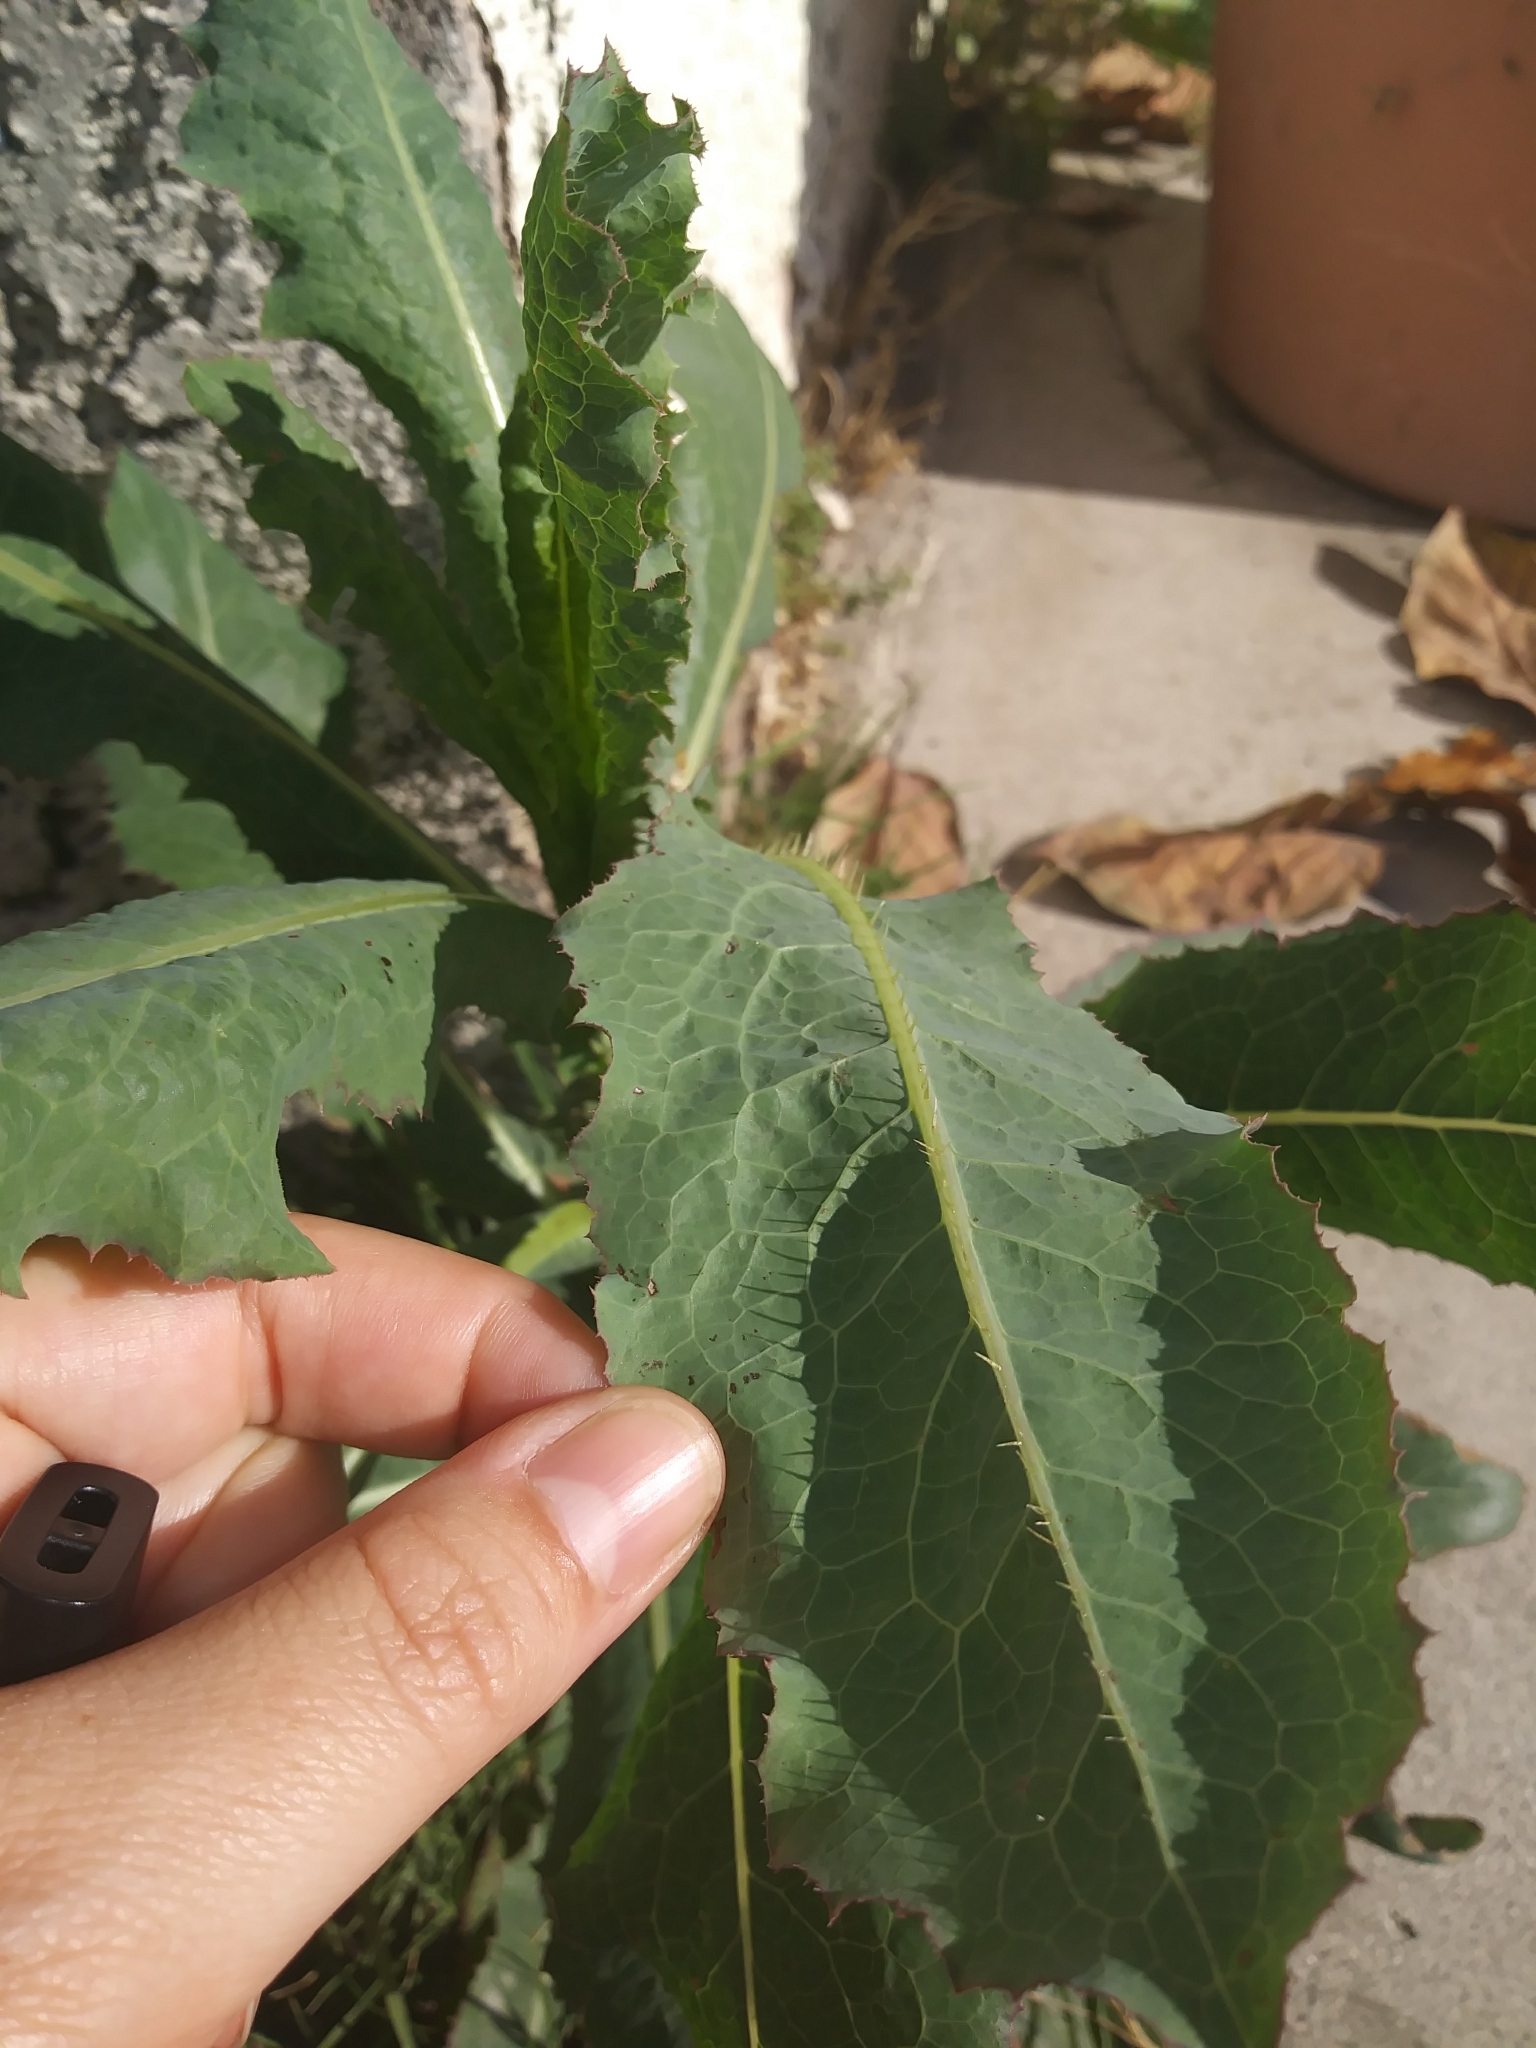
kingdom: Plantae
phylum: Tracheophyta
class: Magnoliopsida
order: Asterales
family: Asteraceae
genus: Lactuca
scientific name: Lactuca serriola
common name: Prickly lettuce
